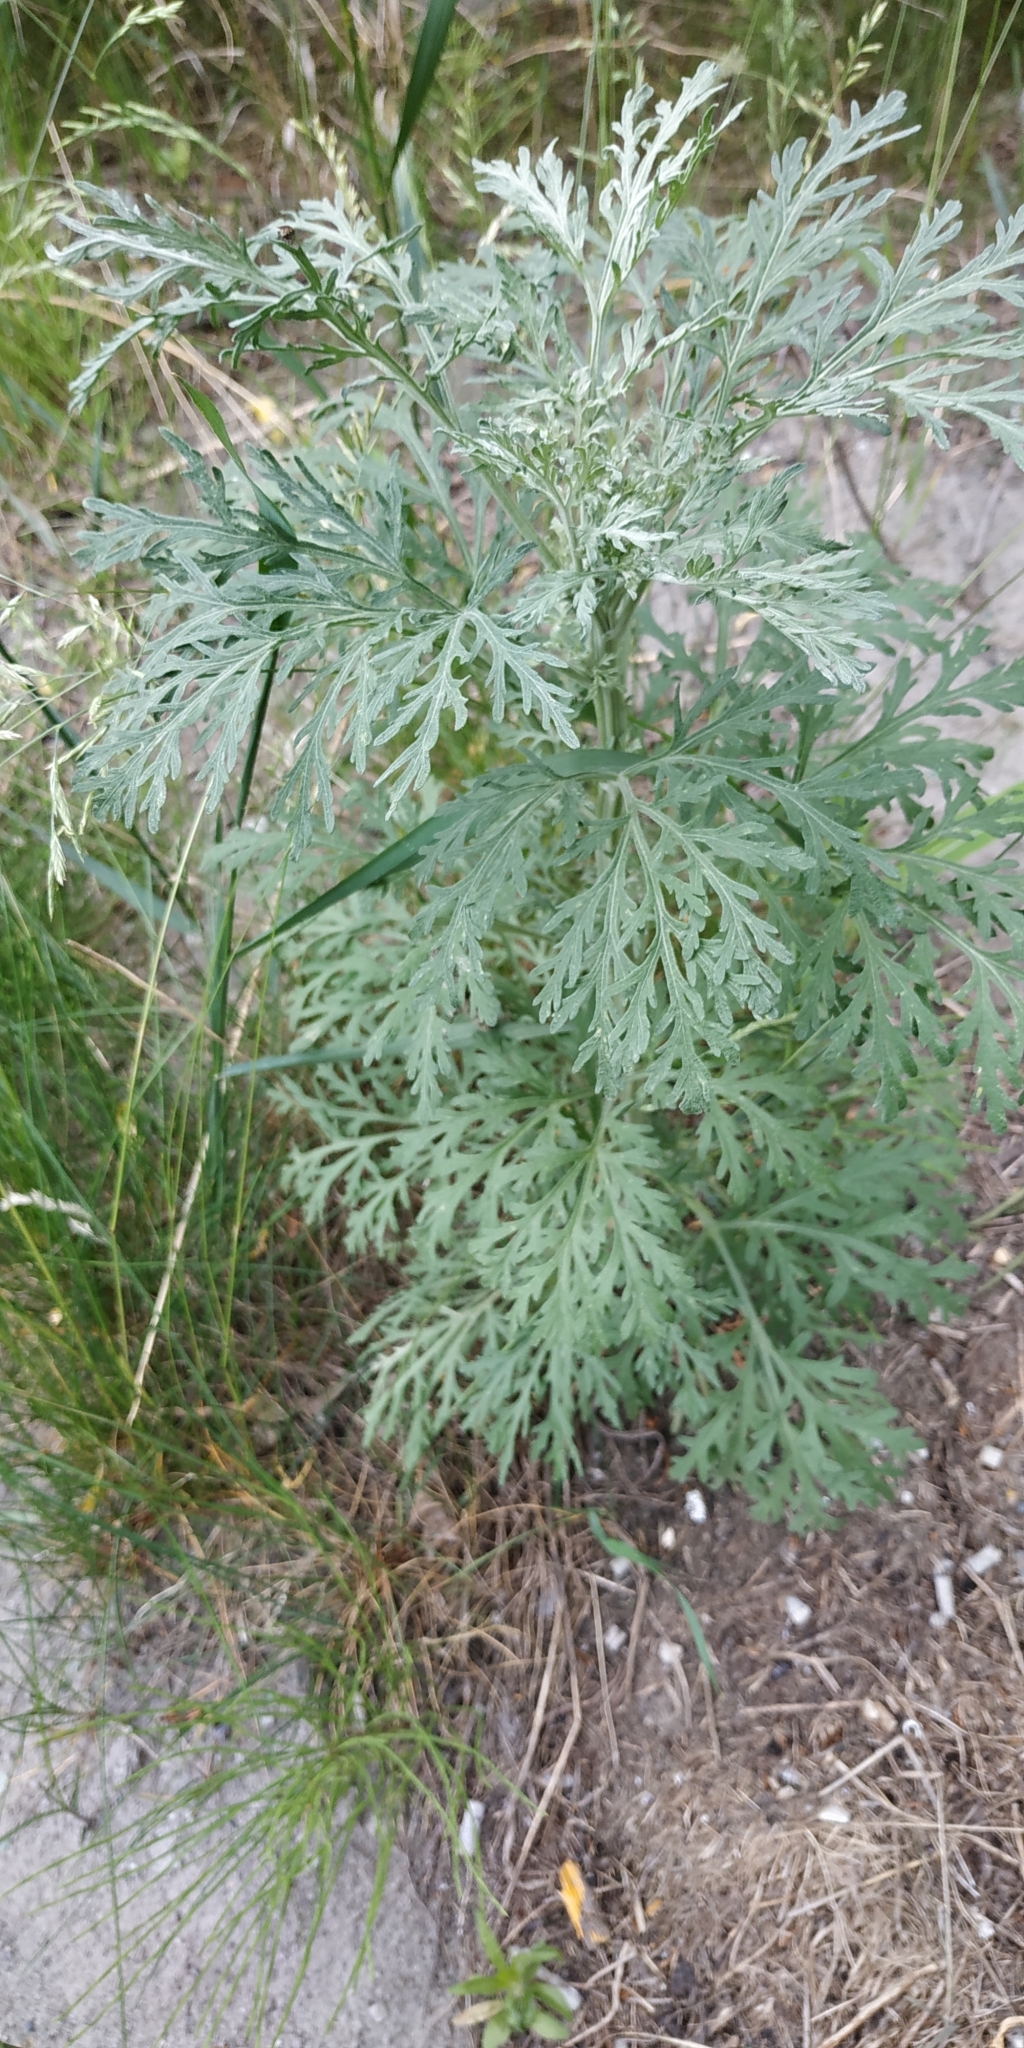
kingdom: Plantae
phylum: Tracheophyta
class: Magnoliopsida
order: Asterales
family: Asteraceae
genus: Artemisia
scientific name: Artemisia sieversiana
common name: Sieversian wormwood
